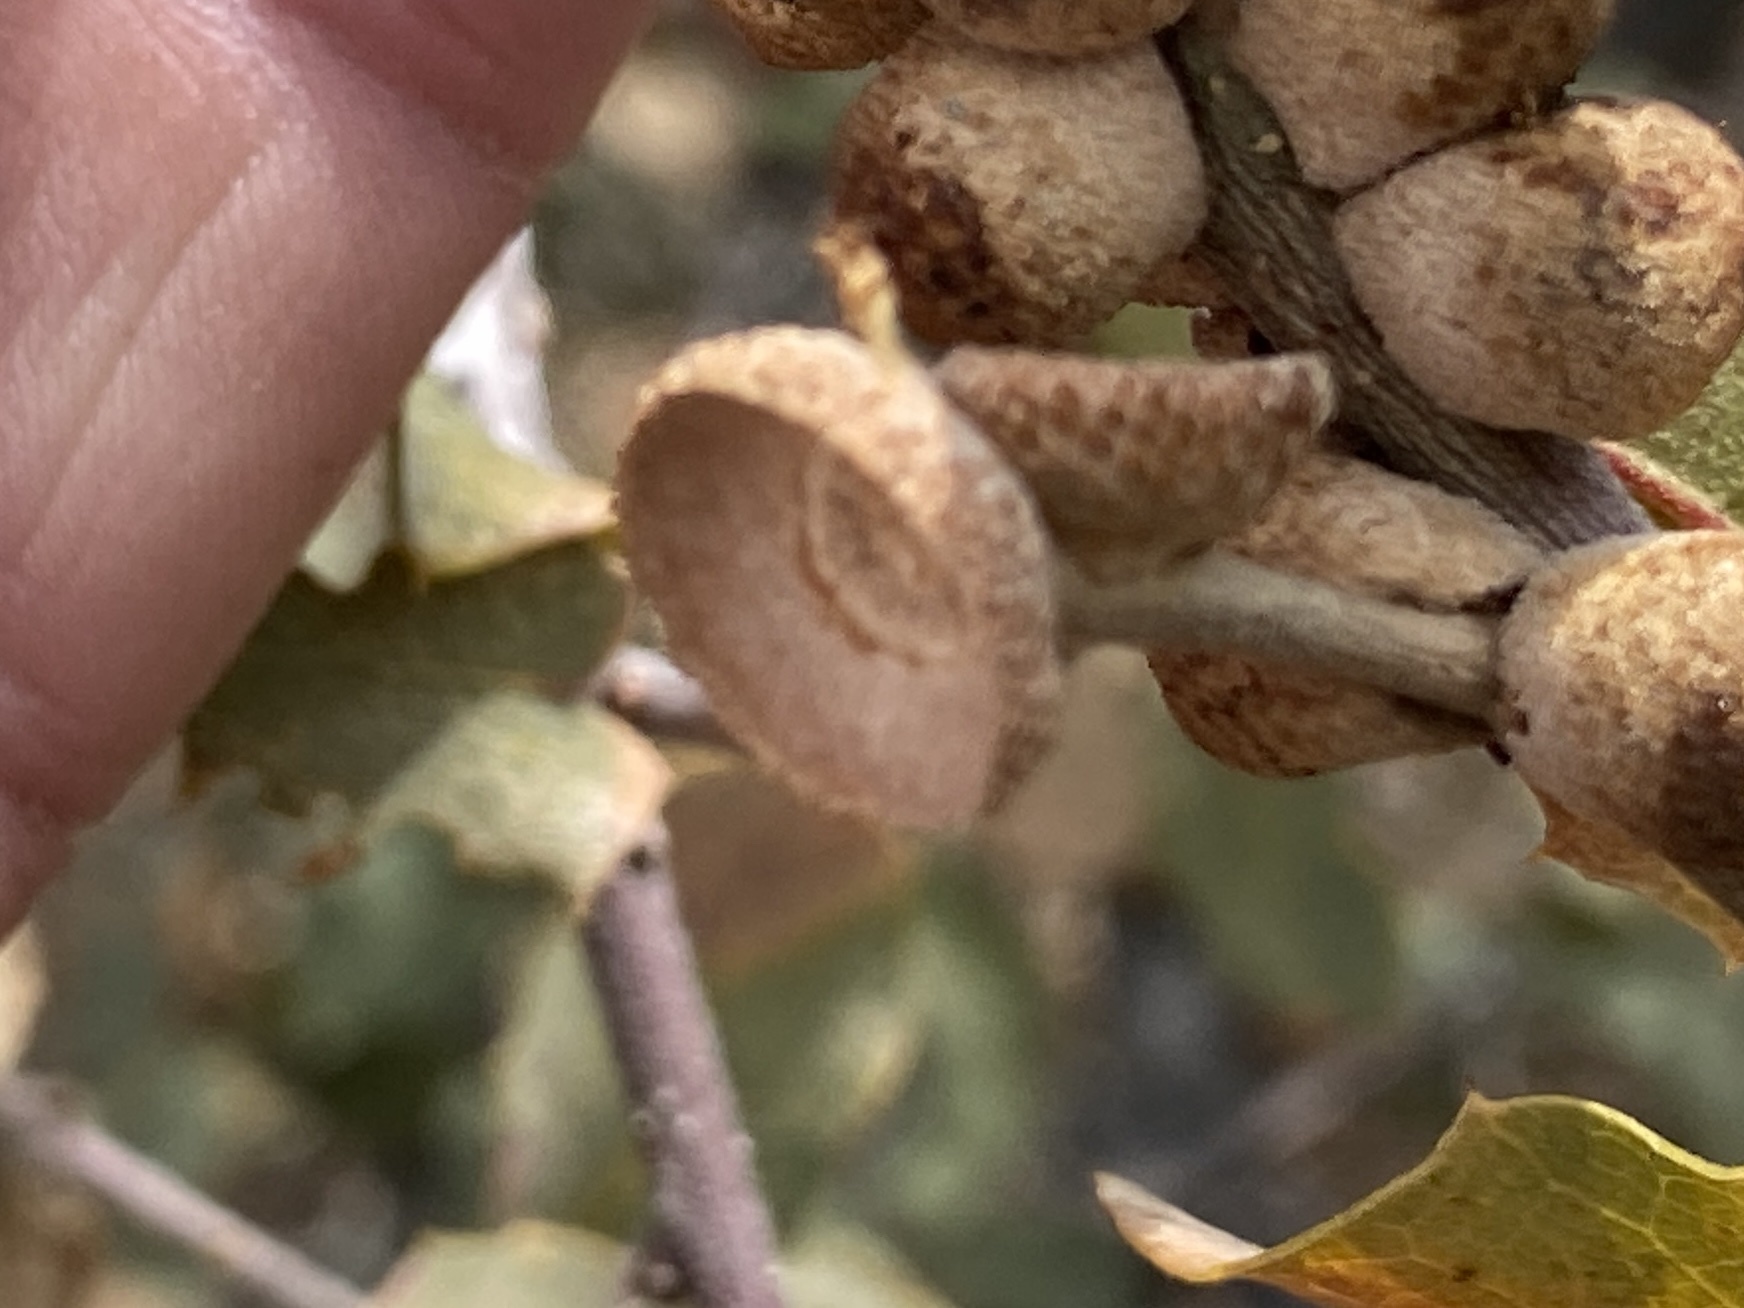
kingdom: Plantae
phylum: Tracheophyta
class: Magnoliopsida
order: Fagales
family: Fagaceae
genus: Quercus
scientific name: Quercus turbinella
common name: Sonoran scrub oak
